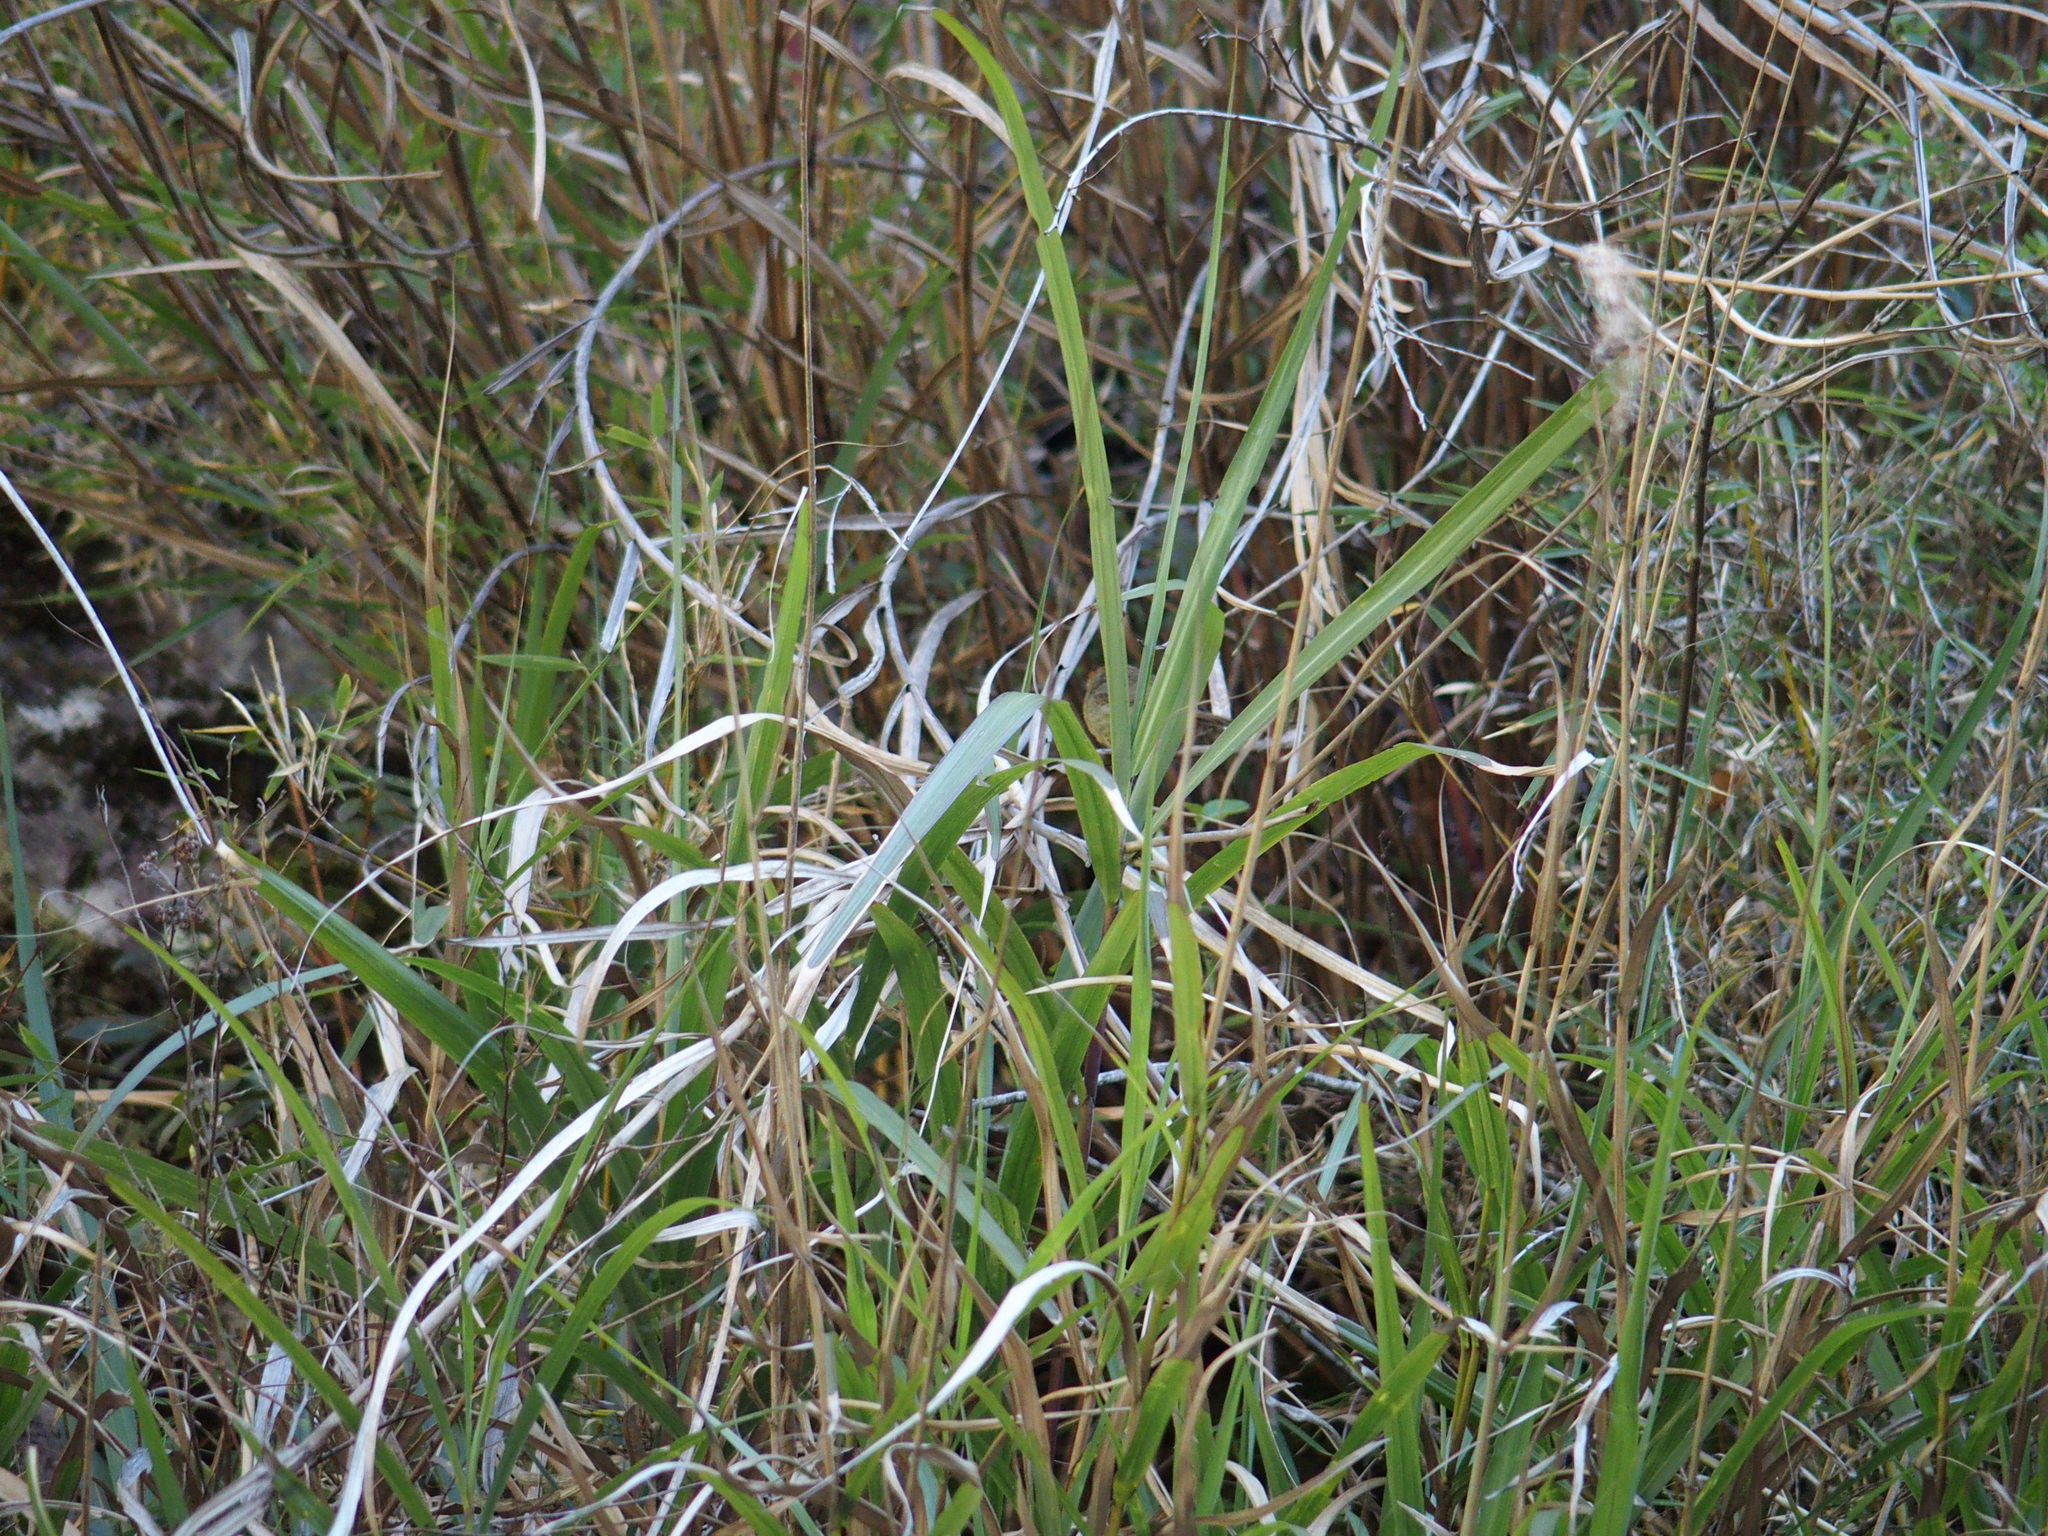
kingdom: Animalia
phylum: Chordata
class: Aves
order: Passeriformes
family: Timaliidae
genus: Stachyridopsis
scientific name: Stachyridopsis ruficeps
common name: Rufous-capped babbler
